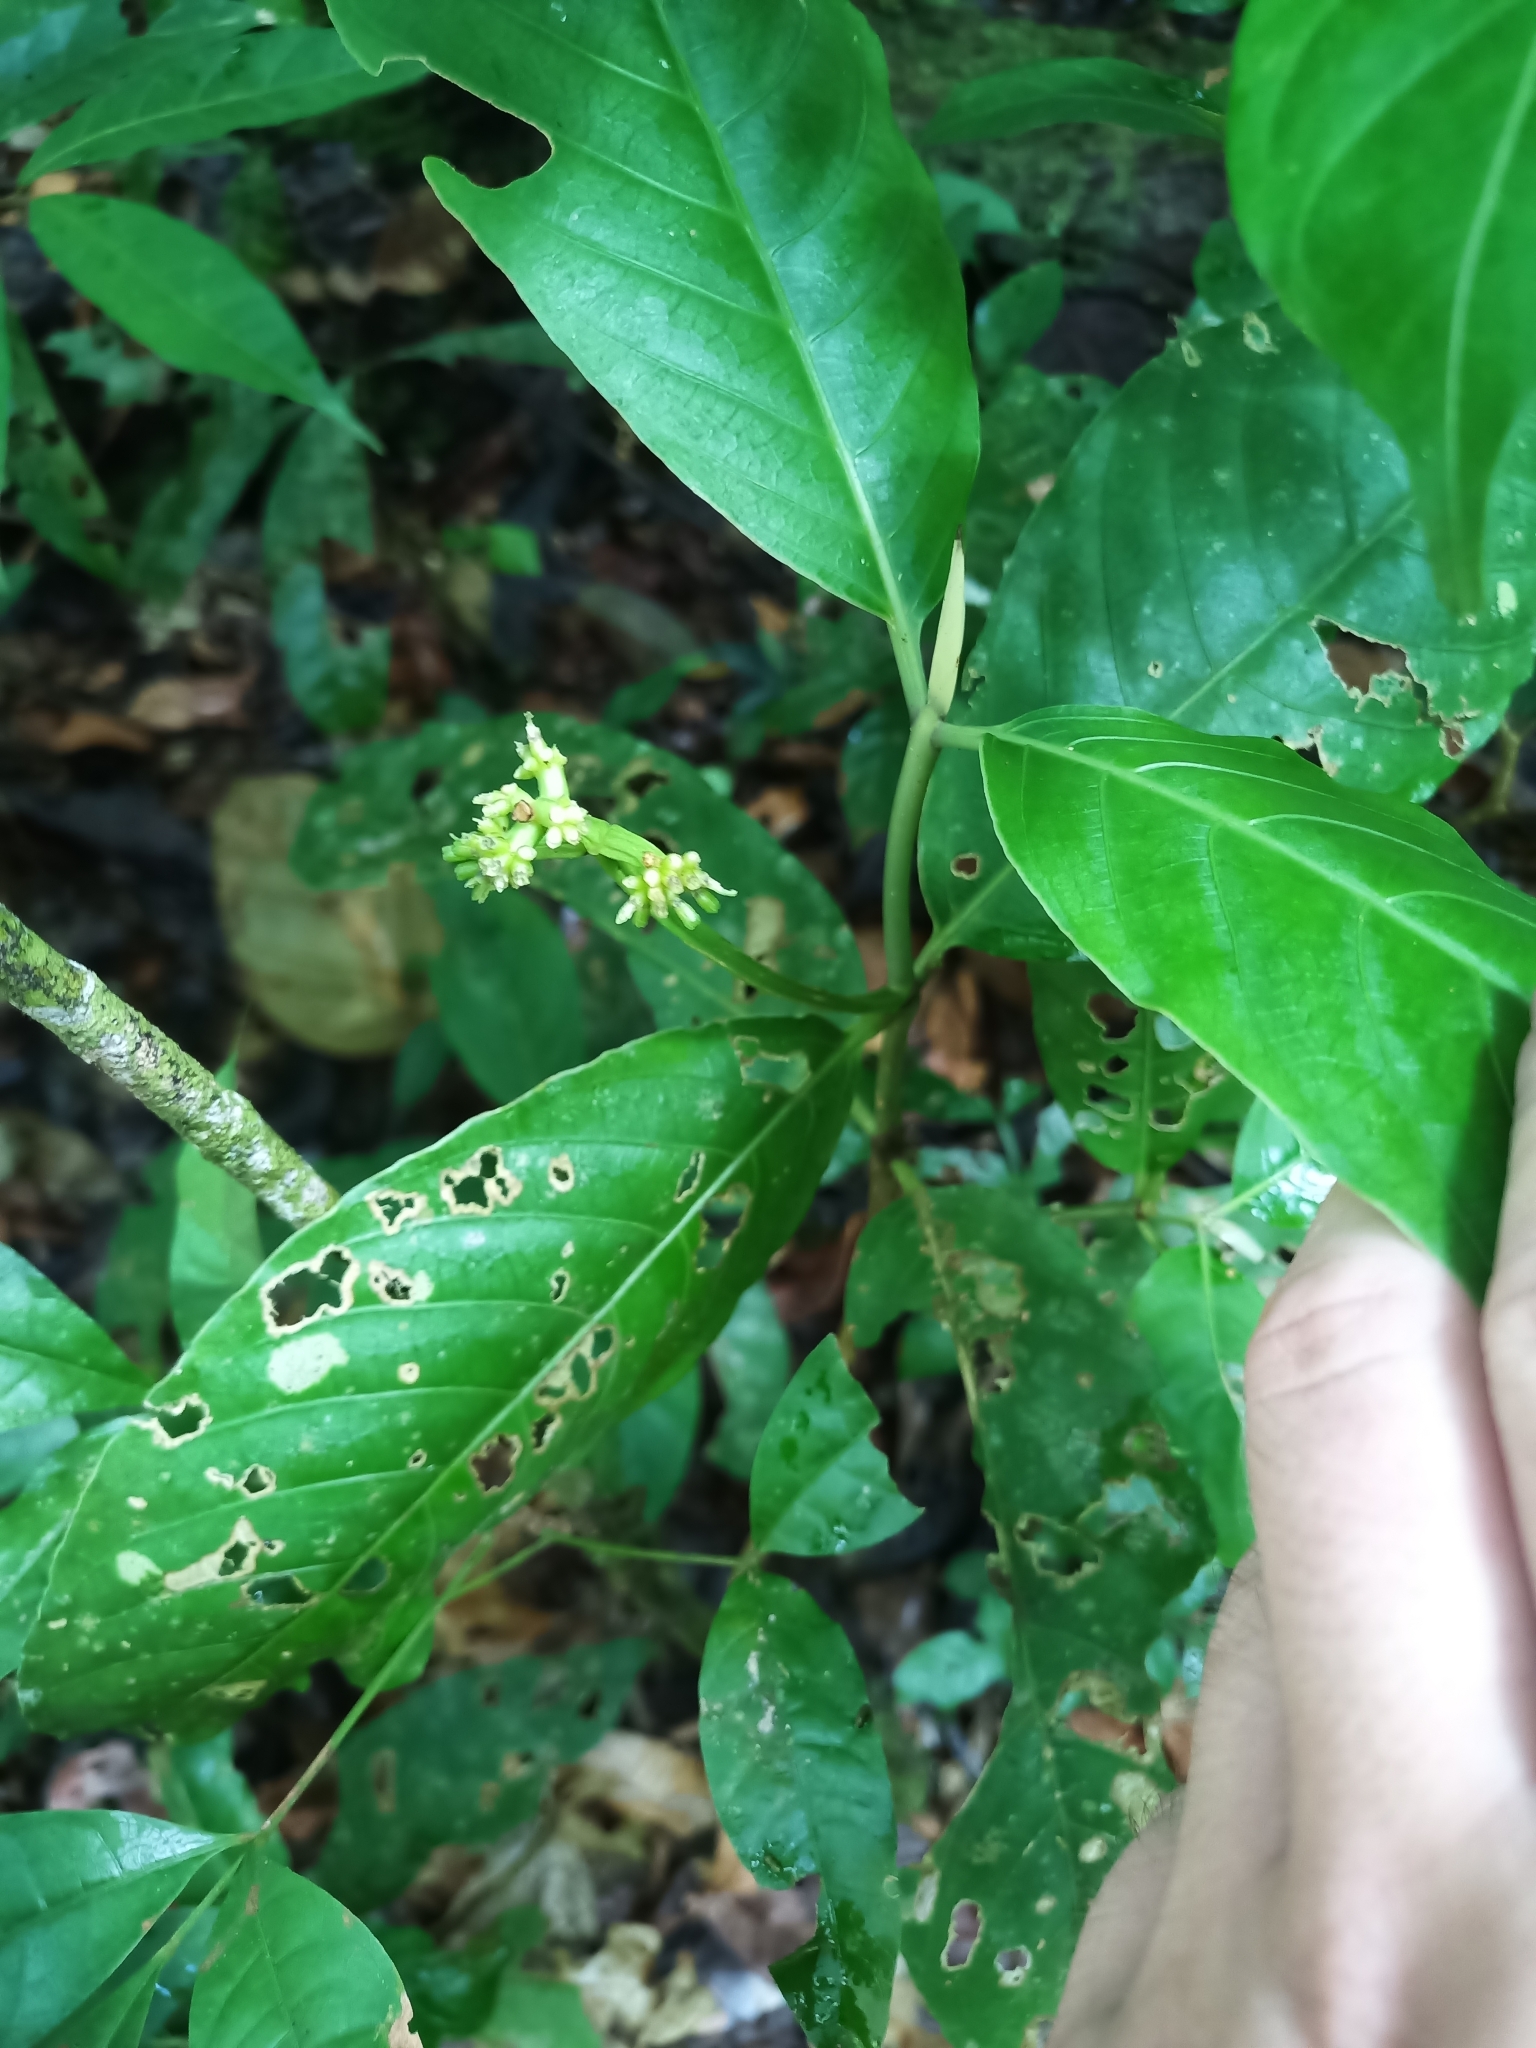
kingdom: Plantae
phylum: Tracheophyta
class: Magnoliopsida
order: Gentianales
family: Rubiaceae
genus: Rudgea
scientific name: Rudgea stipulacea
